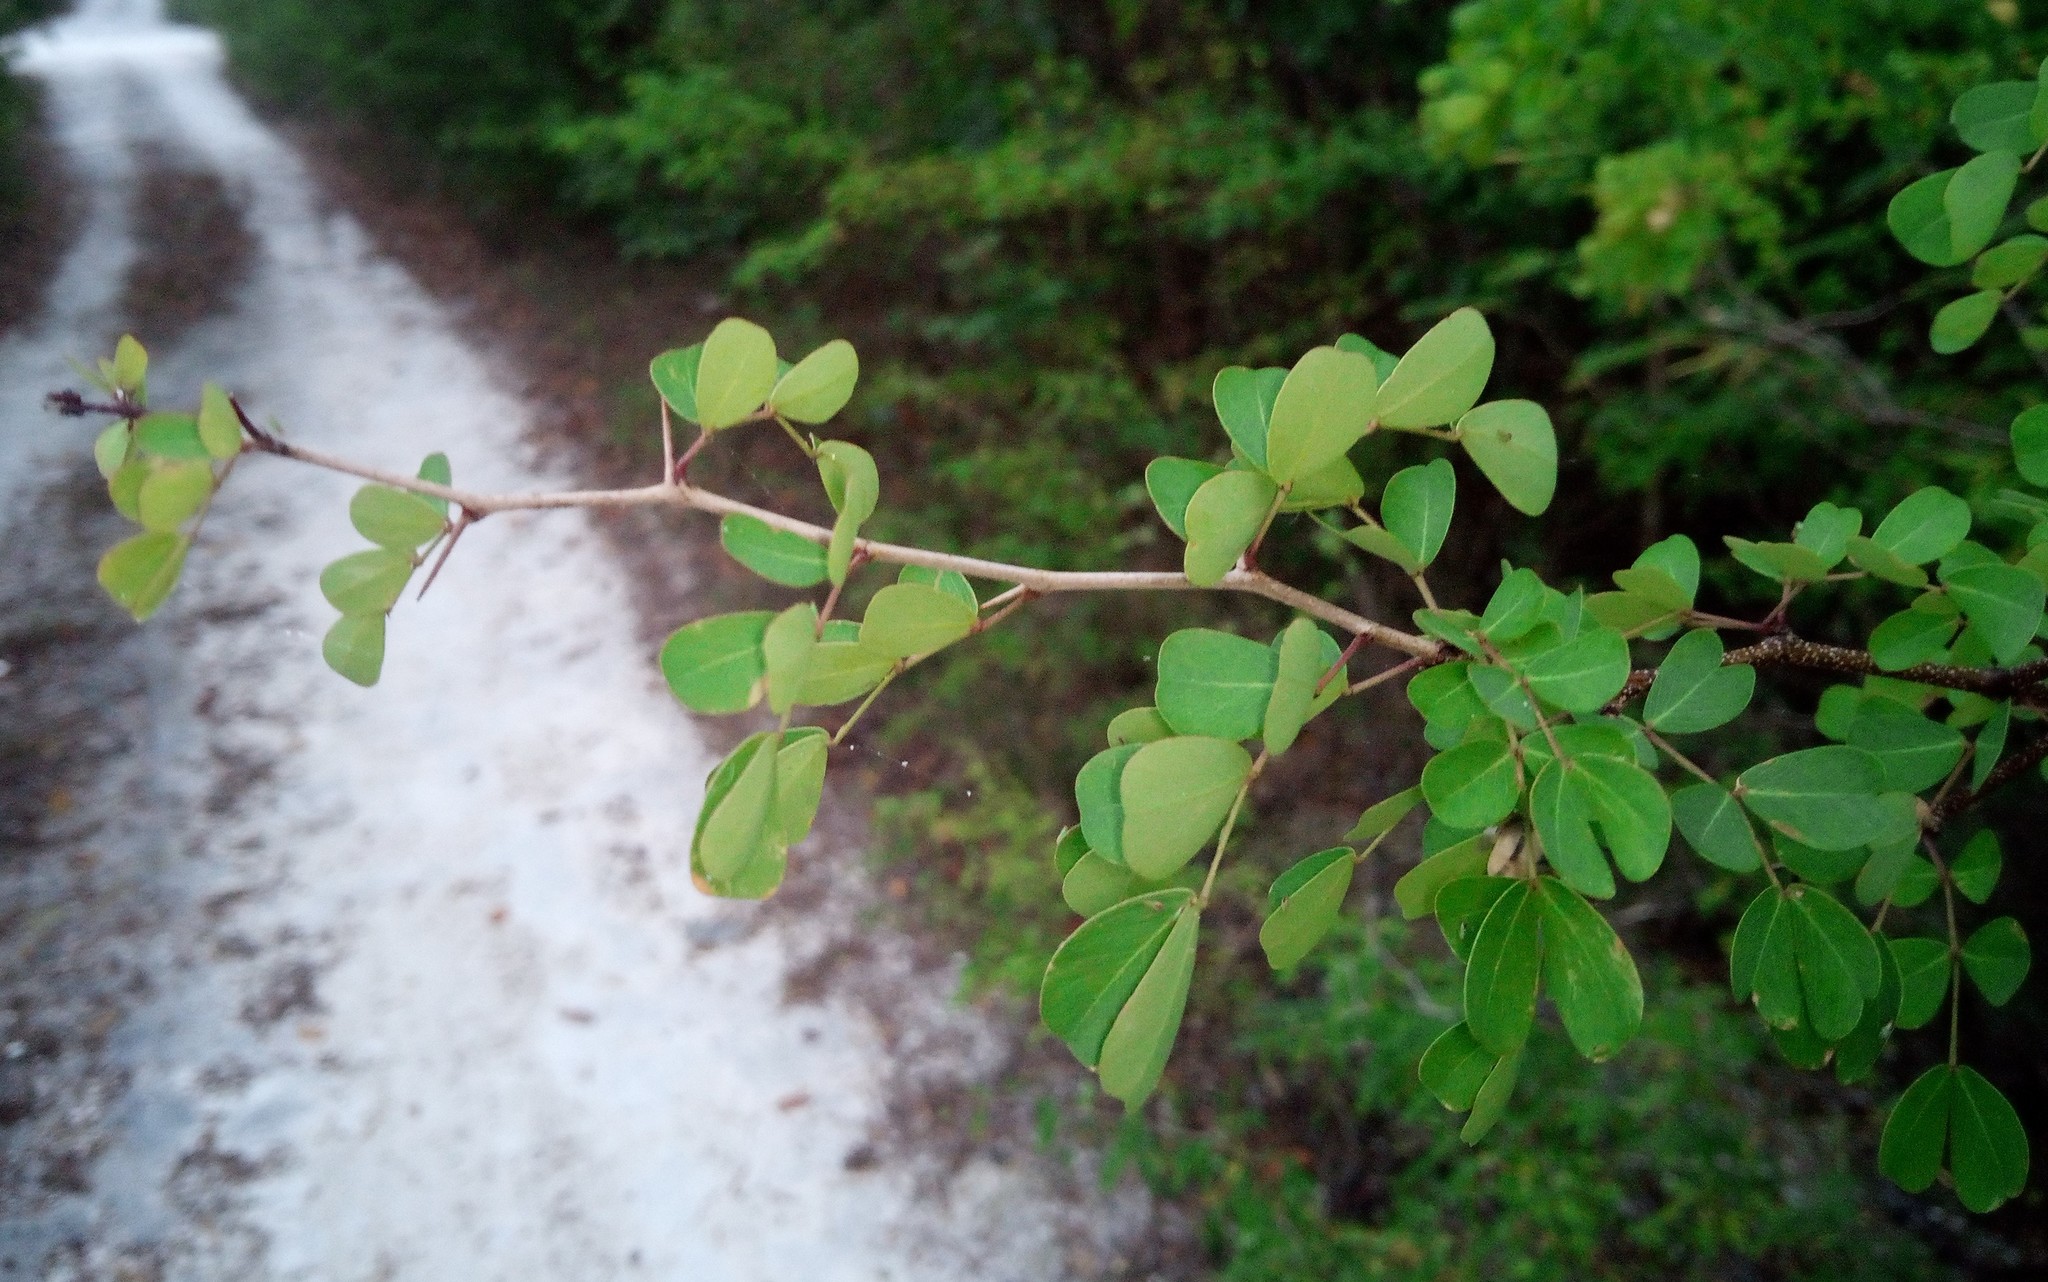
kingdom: Plantae
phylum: Tracheophyta
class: Magnoliopsida
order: Fabales
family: Fabaceae
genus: Haematoxylum
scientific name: Haematoxylum campechianum
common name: Logwood
